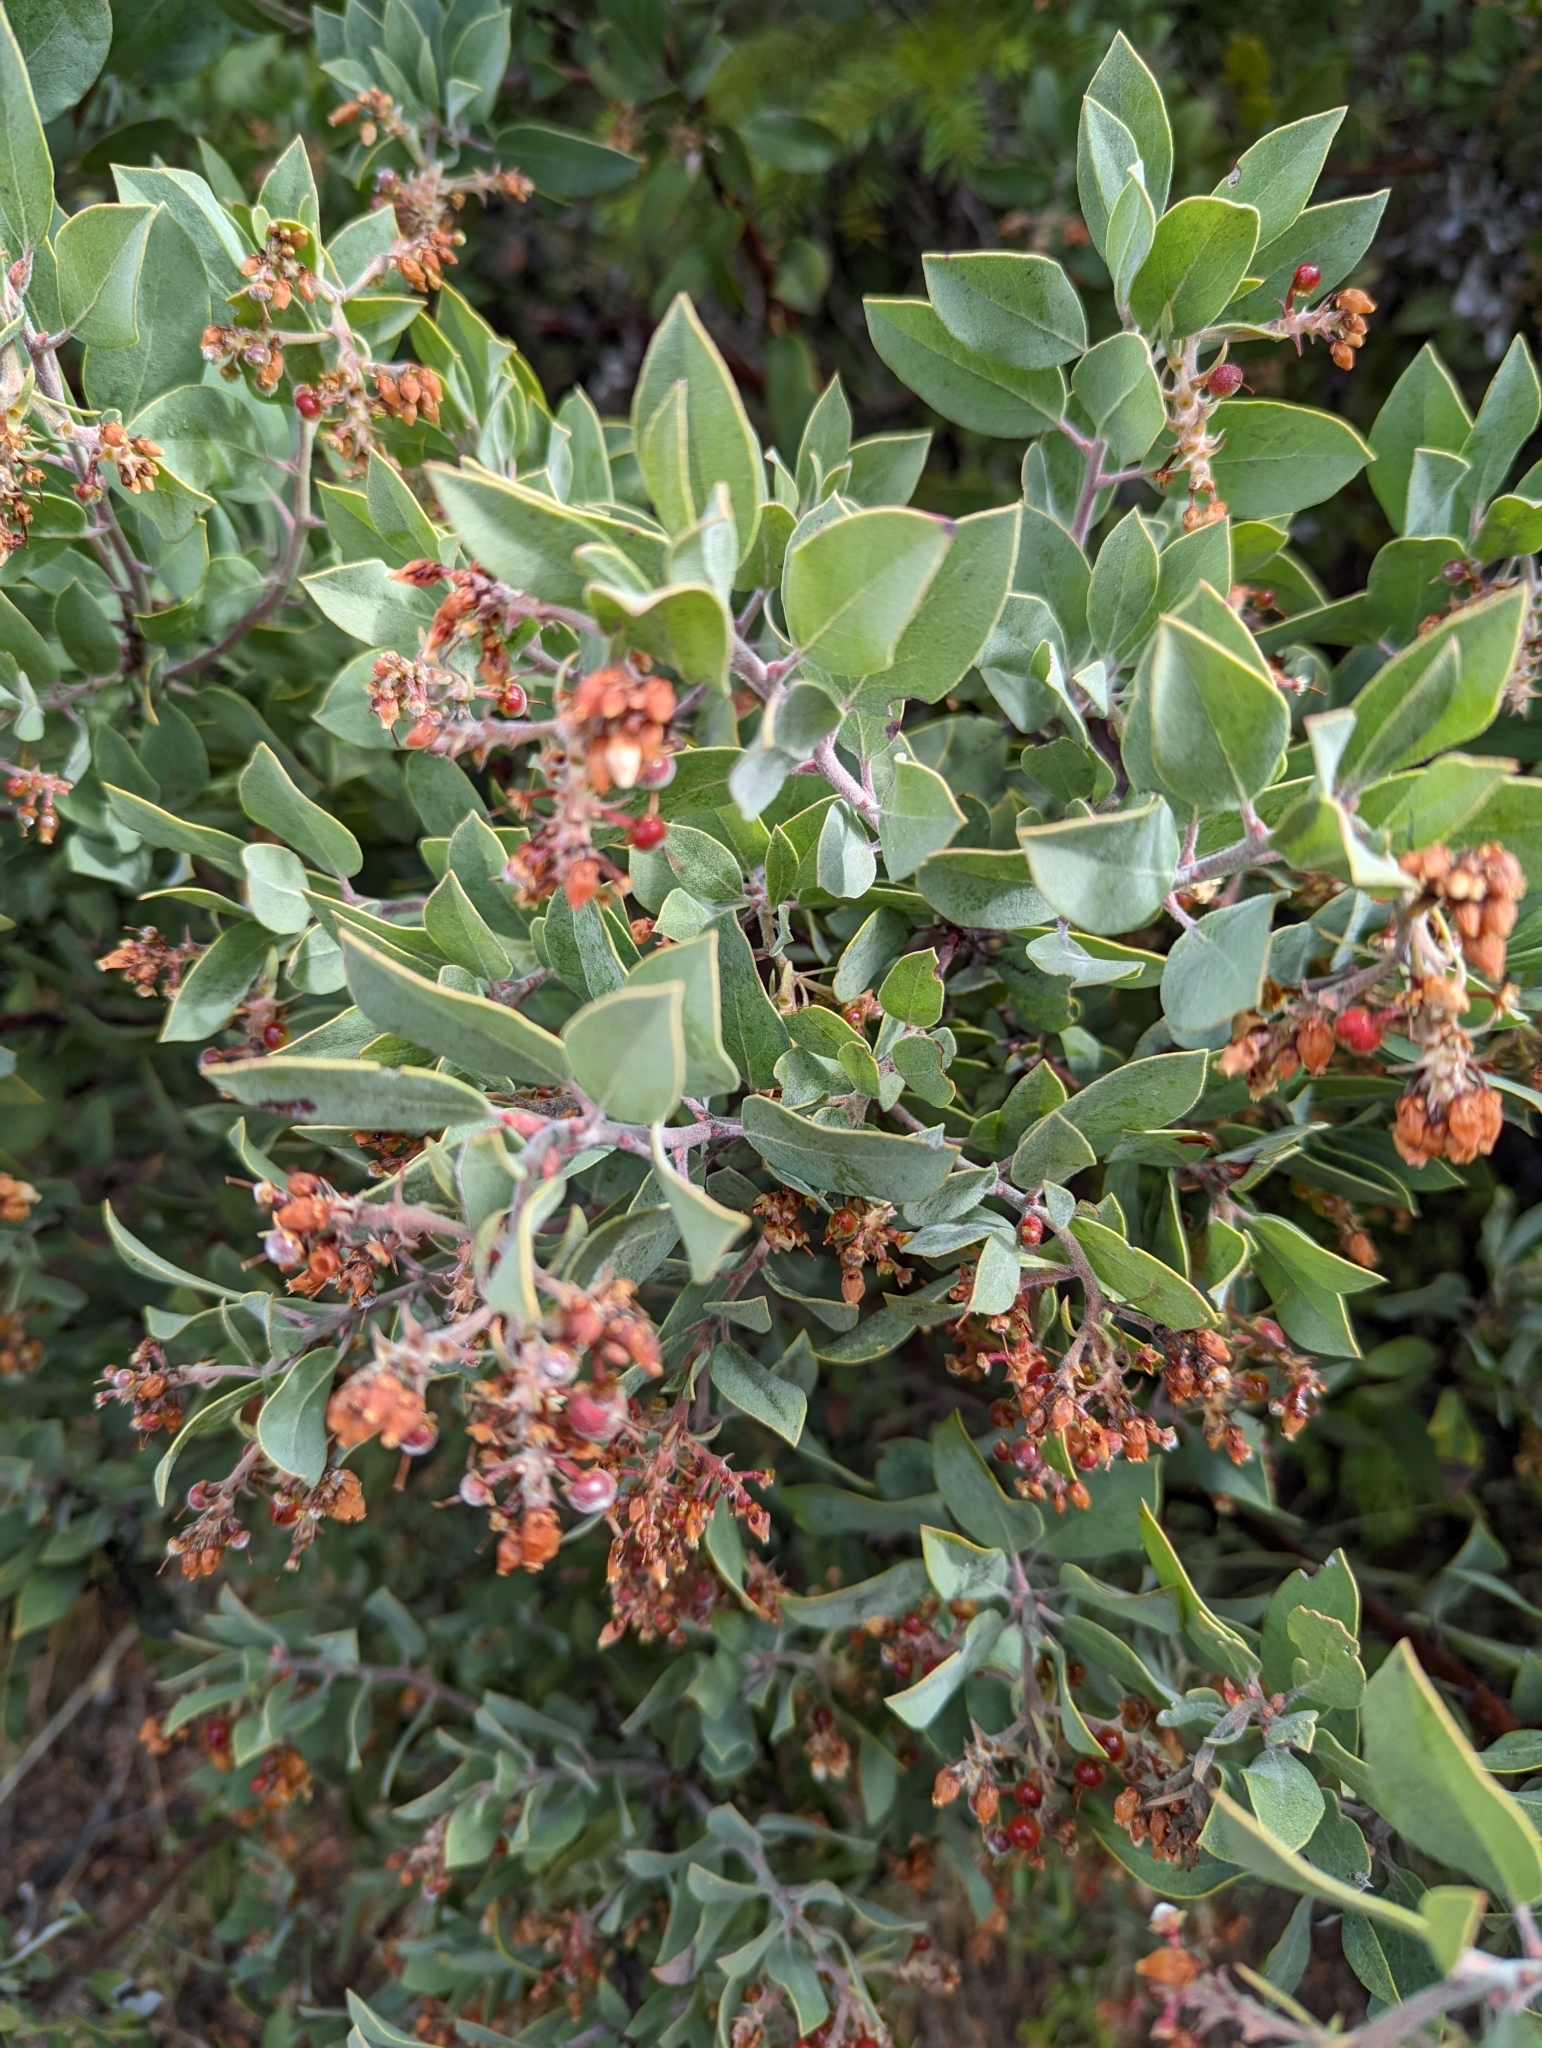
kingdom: Plantae
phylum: Tracheophyta
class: Magnoliopsida
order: Ericales
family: Ericaceae
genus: Arctostaphylos
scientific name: Arctostaphylos columbiana
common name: Bristly bearberry
